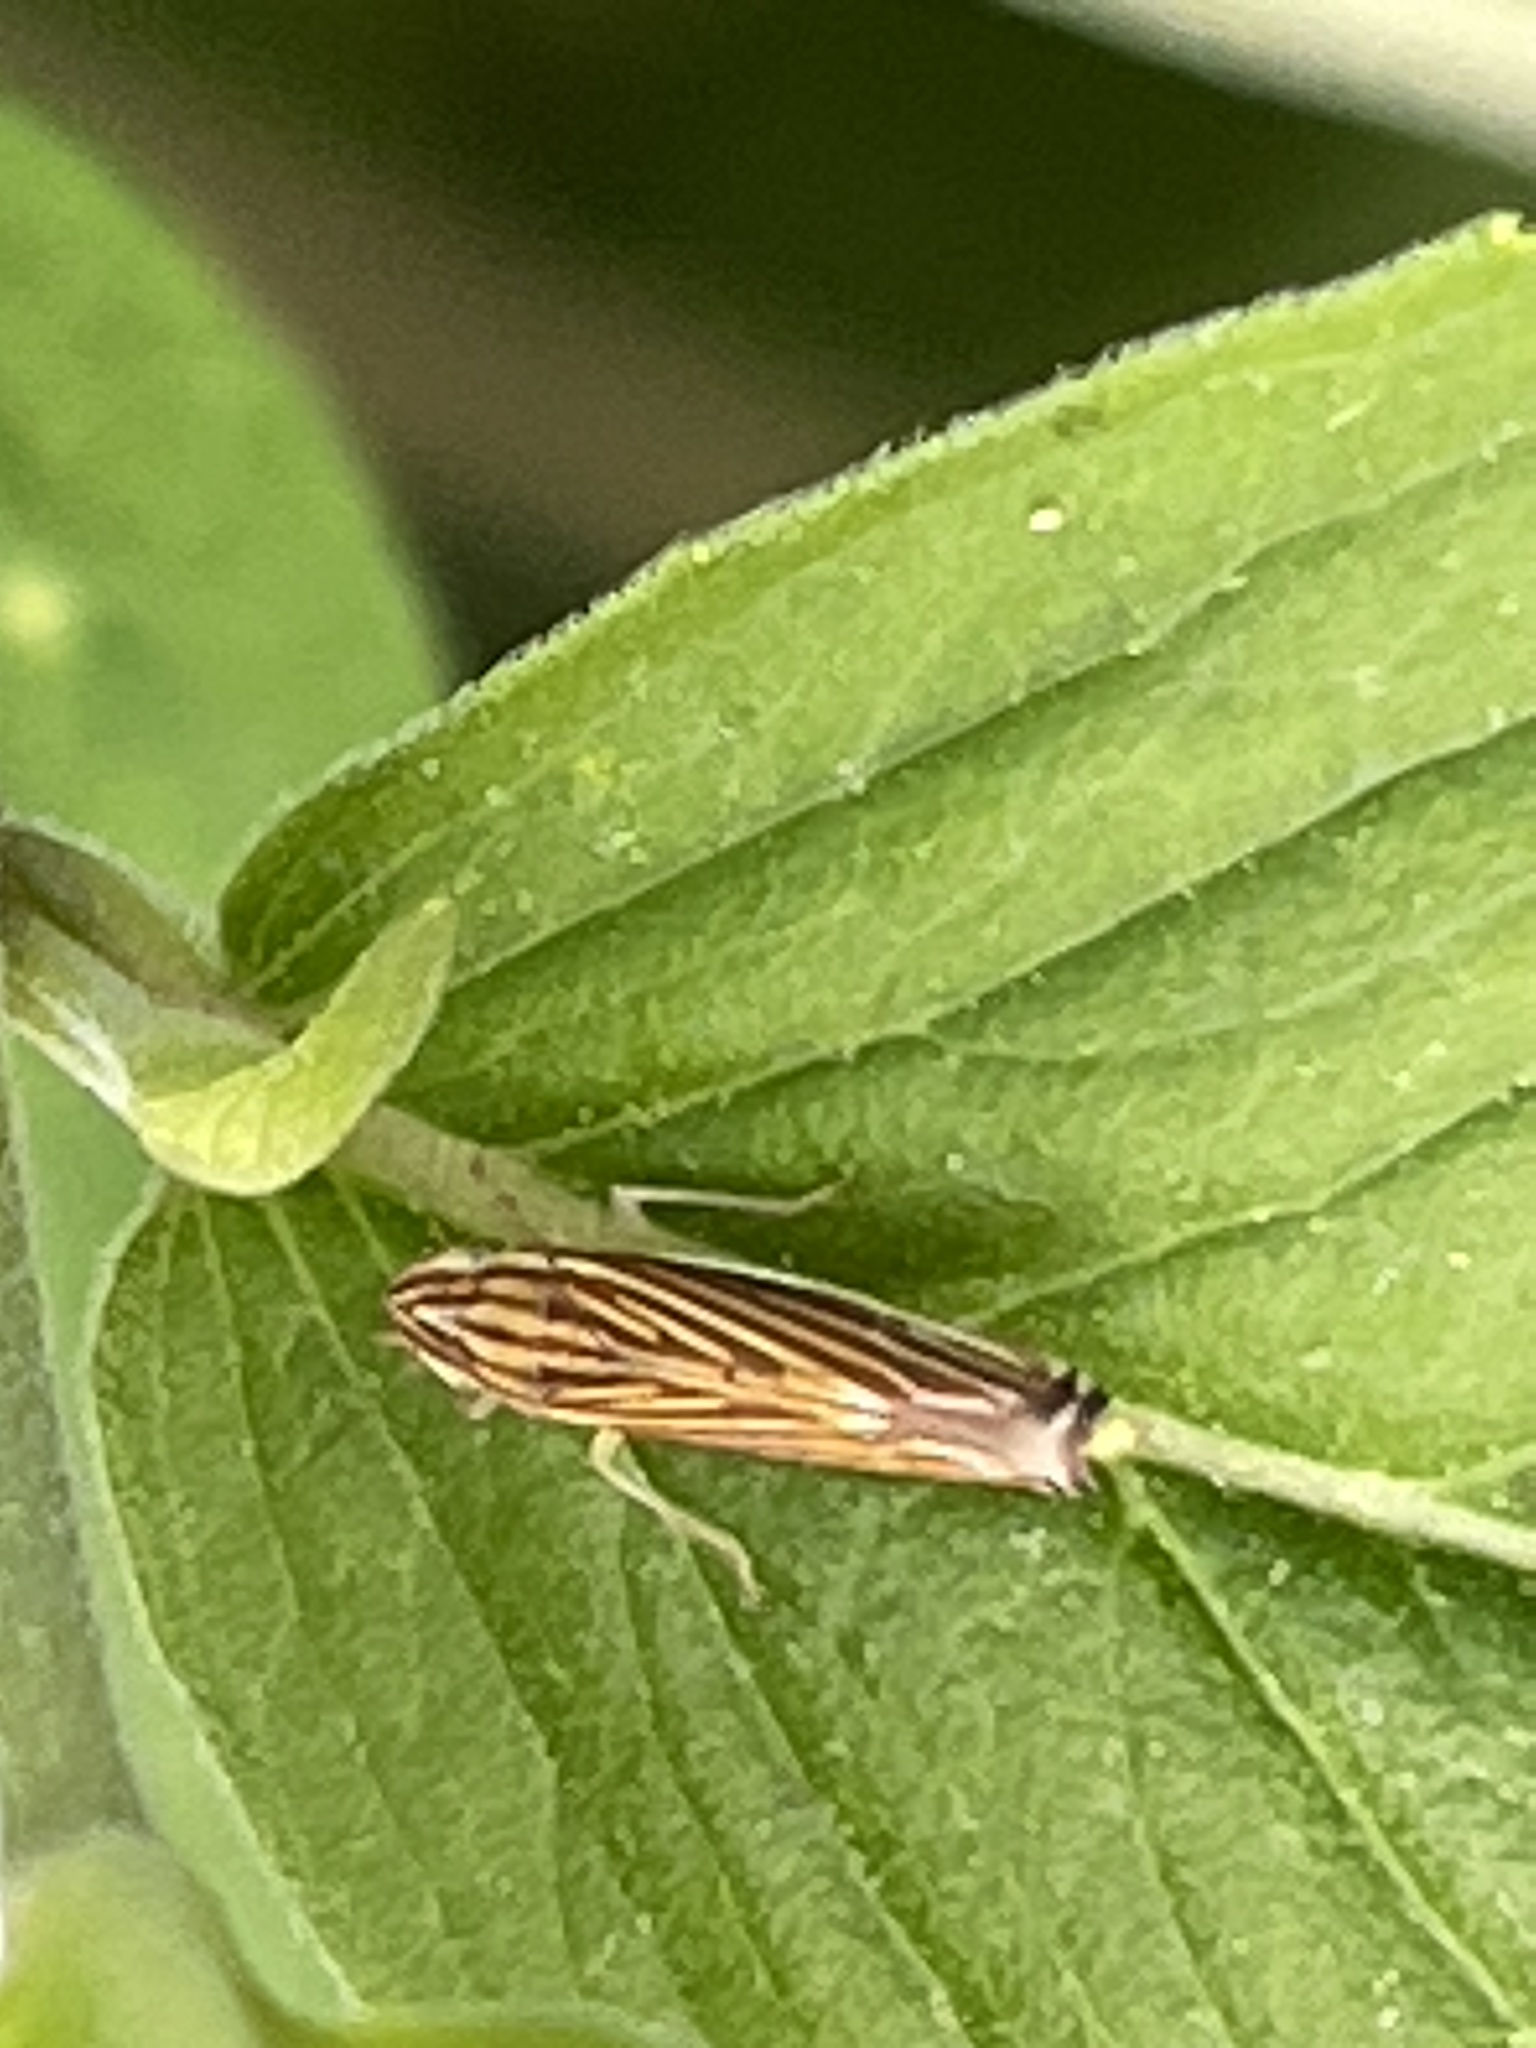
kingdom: Animalia
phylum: Arthropoda
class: Insecta
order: Hemiptera
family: Cicadellidae
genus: Sibovia
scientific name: Sibovia occatoria
